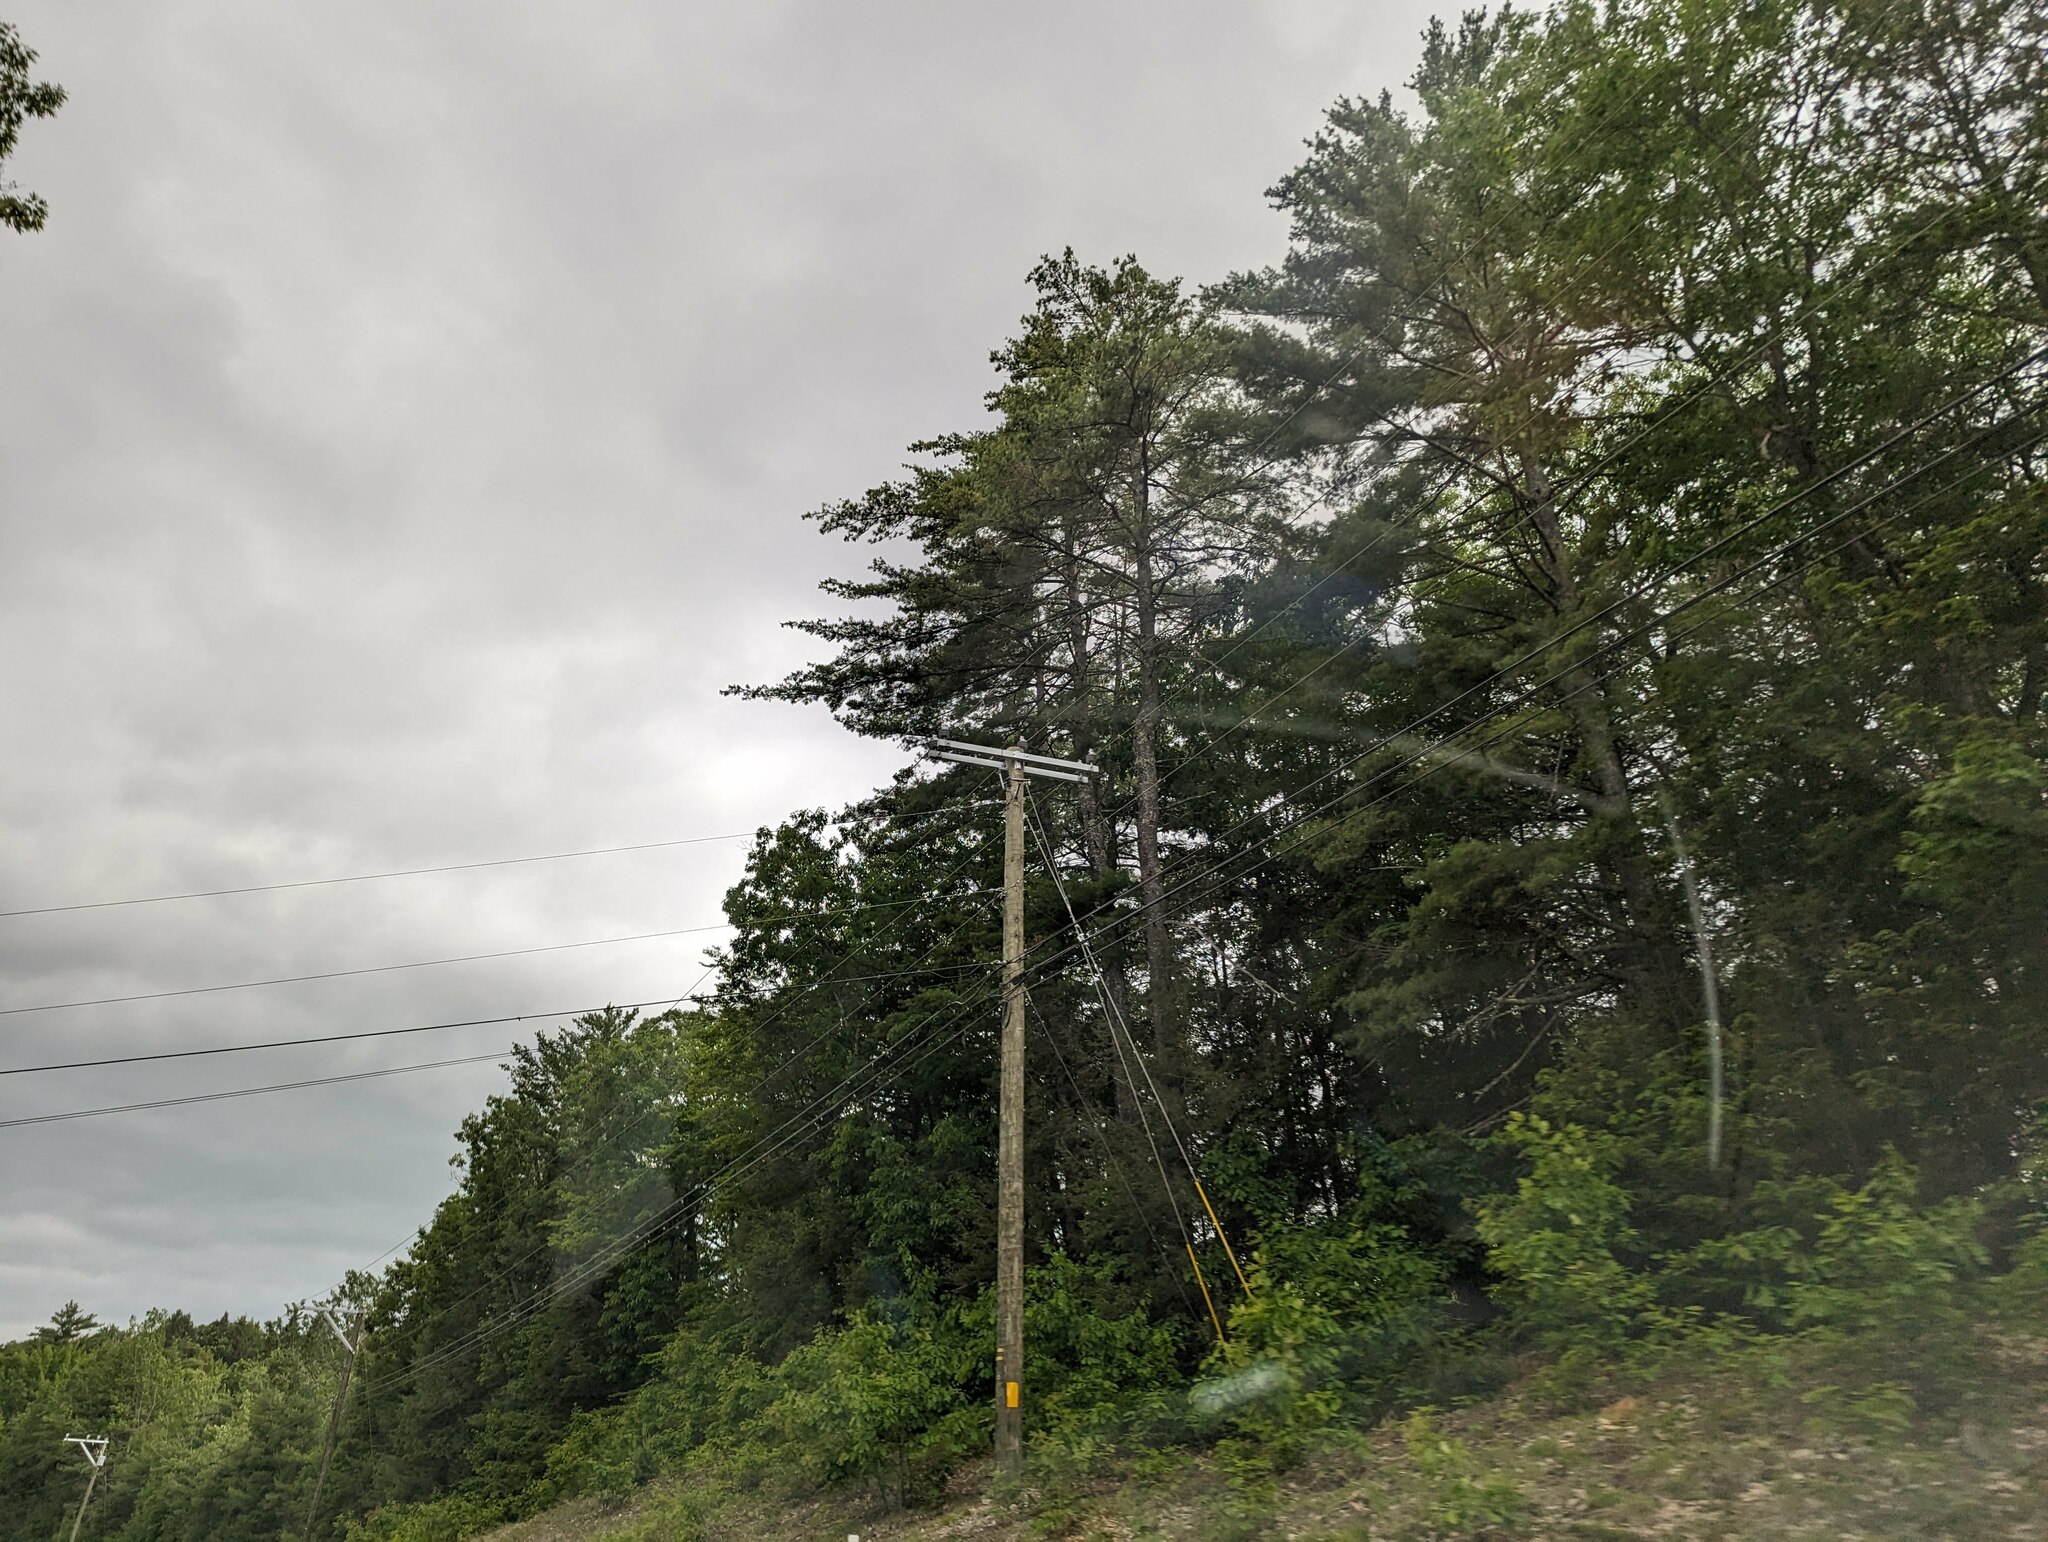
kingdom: Plantae
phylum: Tracheophyta
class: Pinopsida
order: Pinales
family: Pinaceae
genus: Pinus
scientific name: Pinus strobus
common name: Weymouth pine
